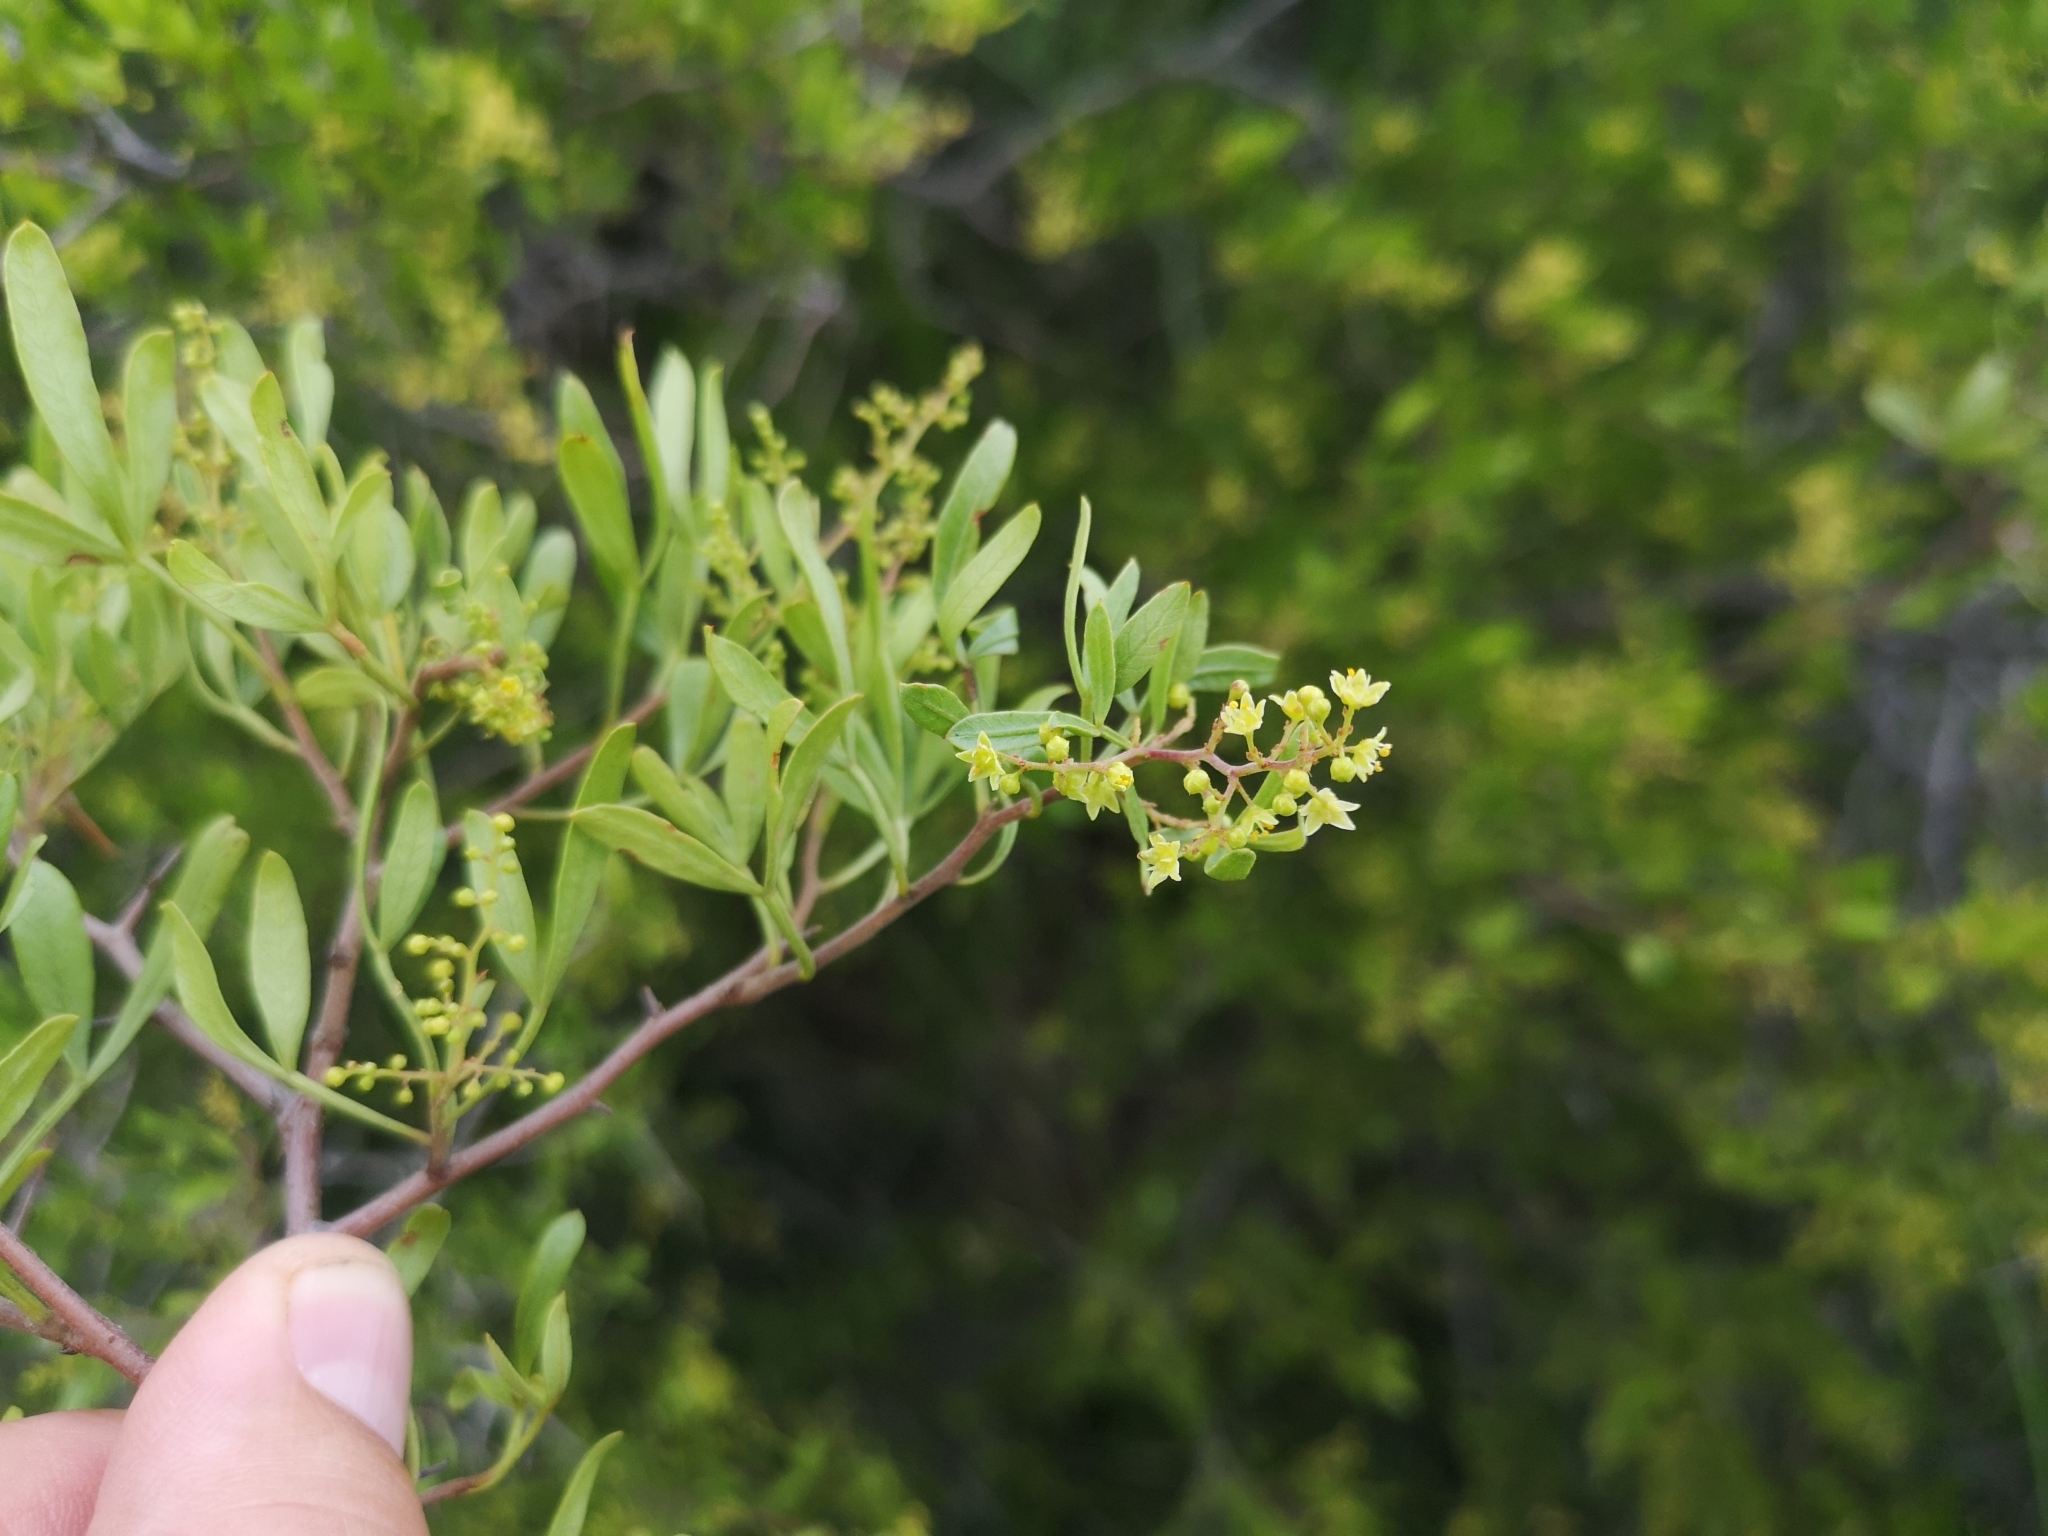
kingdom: Plantae
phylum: Tracheophyta
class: Magnoliopsida
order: Sapindales
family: Anacardiaceae
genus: Searsia
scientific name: Searsia ciliata
